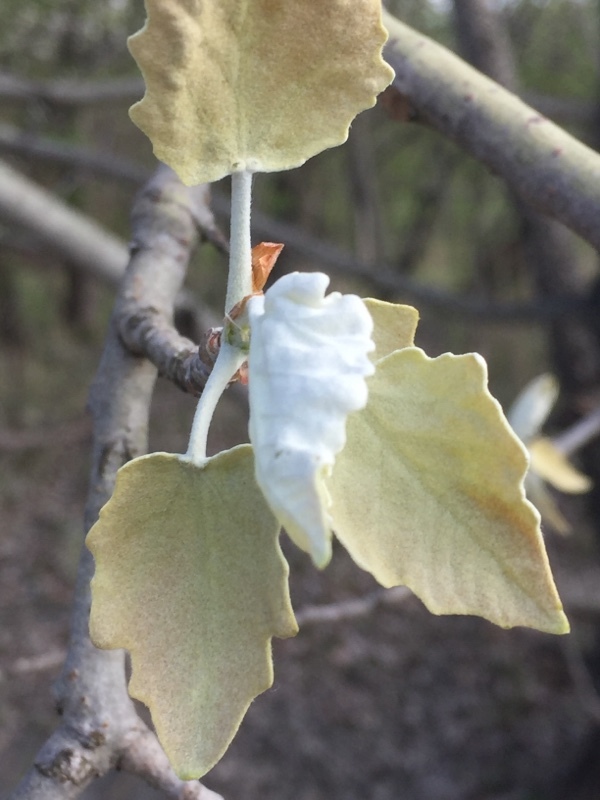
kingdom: Plantae
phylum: Tracheophyta
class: Magnoliopsida
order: Malpighiales
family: Salicaceae
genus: Populus
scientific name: Populus alba
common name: White poplar
